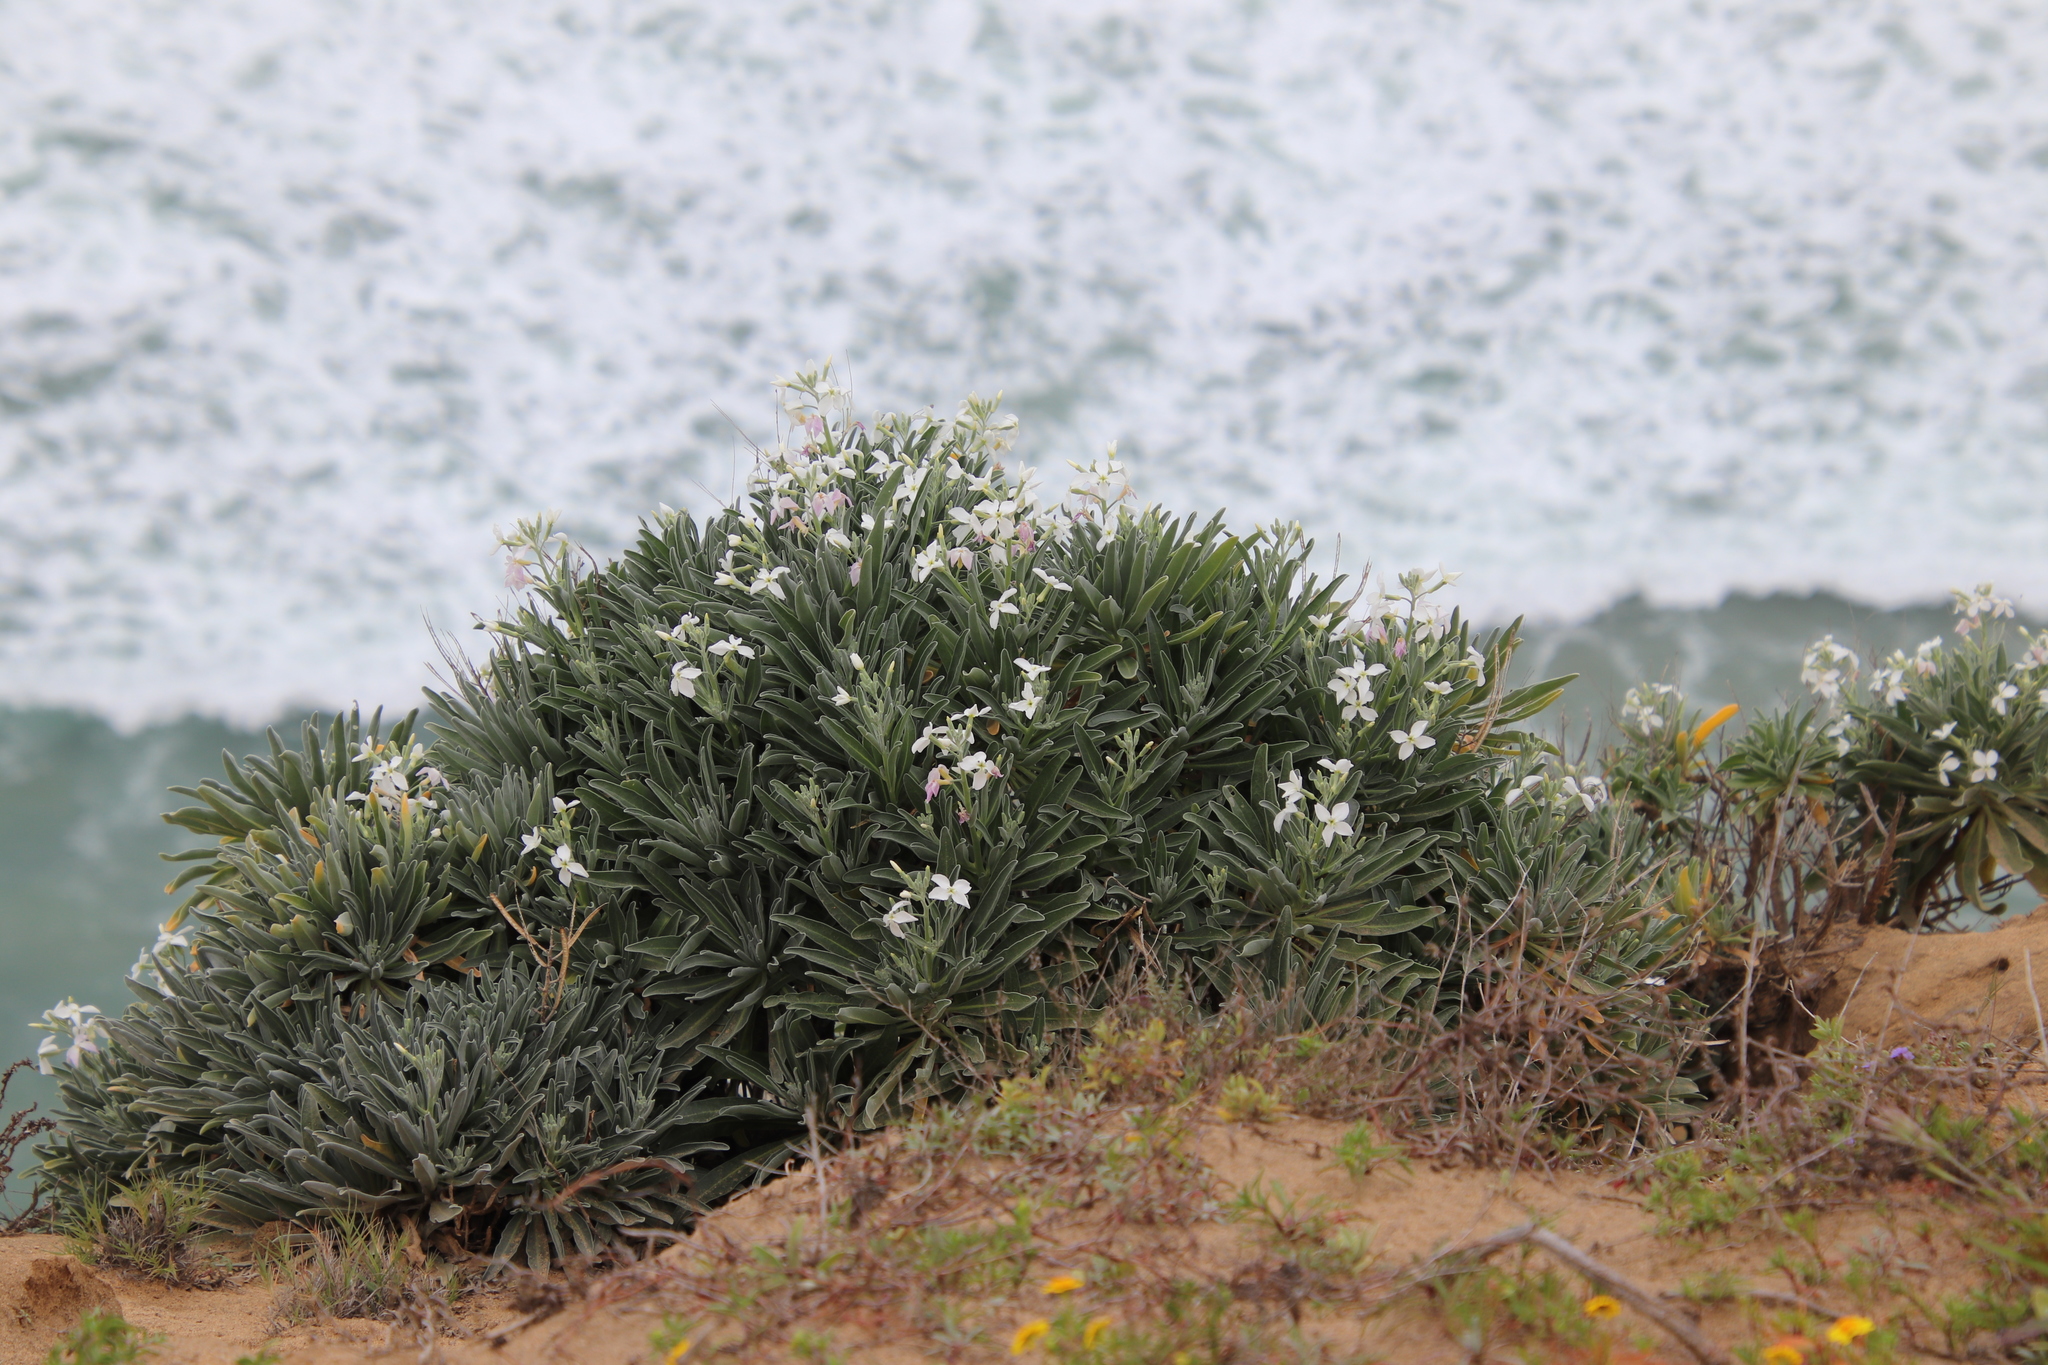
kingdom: Plantae
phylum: Tracheophyta
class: Magnoliopsida
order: Brassicales
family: Brassicaceae
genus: Matthiola
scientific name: Matthiola incana
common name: Hoary stock
